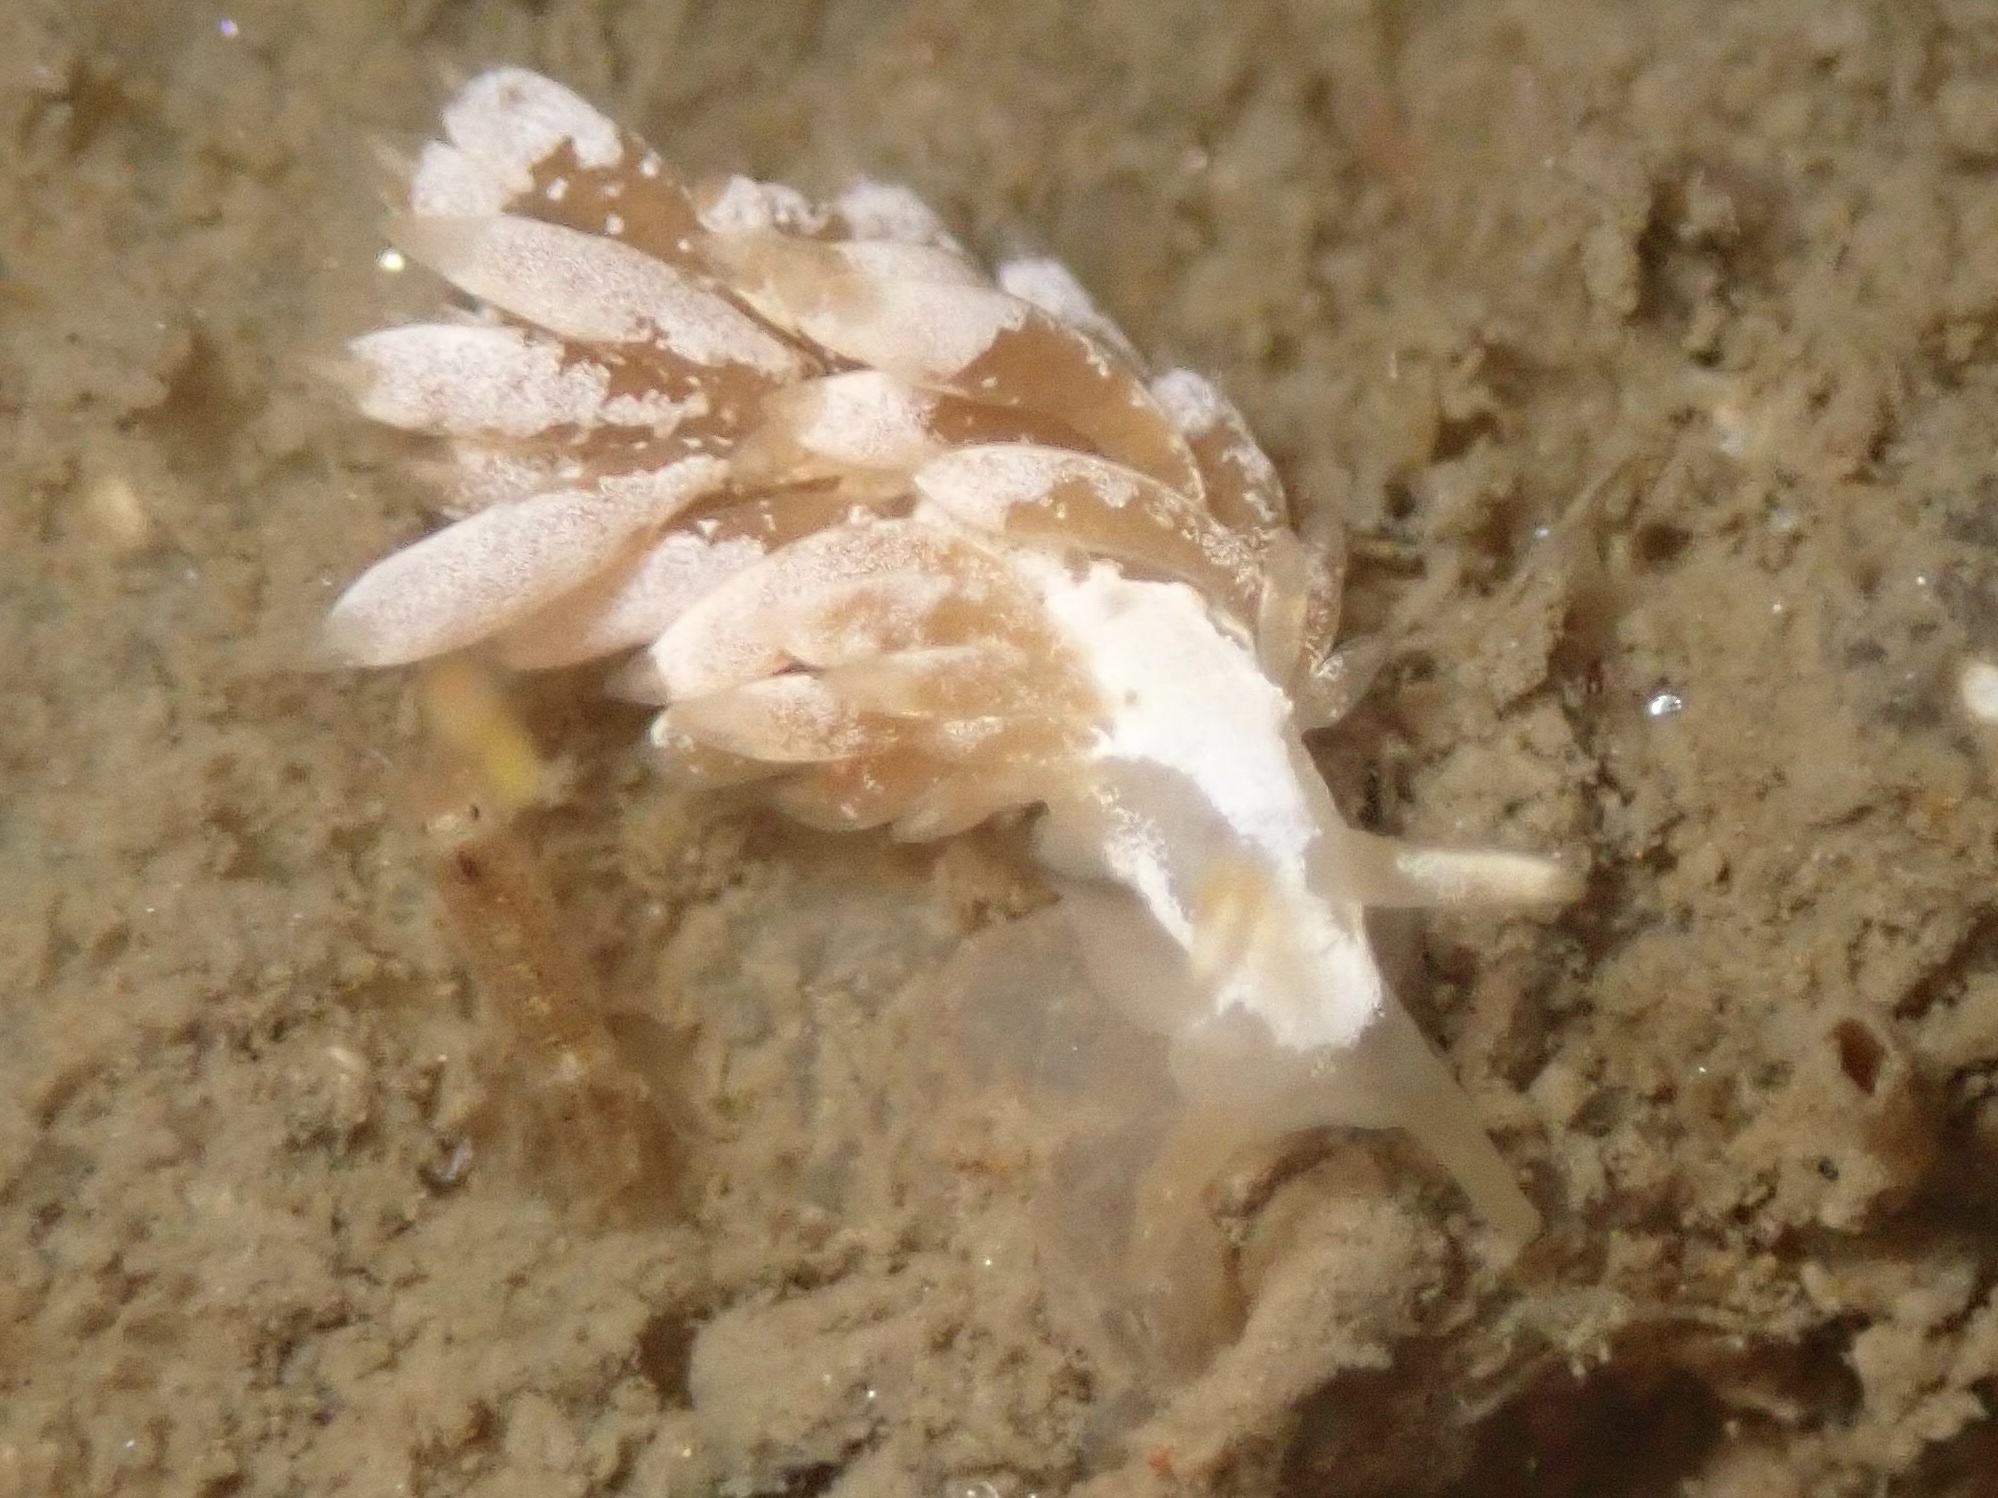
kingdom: Animalia
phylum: Mollusca
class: Gastropoda
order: Nudibranchia
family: Trinchesiidae
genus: Trinchesia
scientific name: Trinchesia albocrusta
